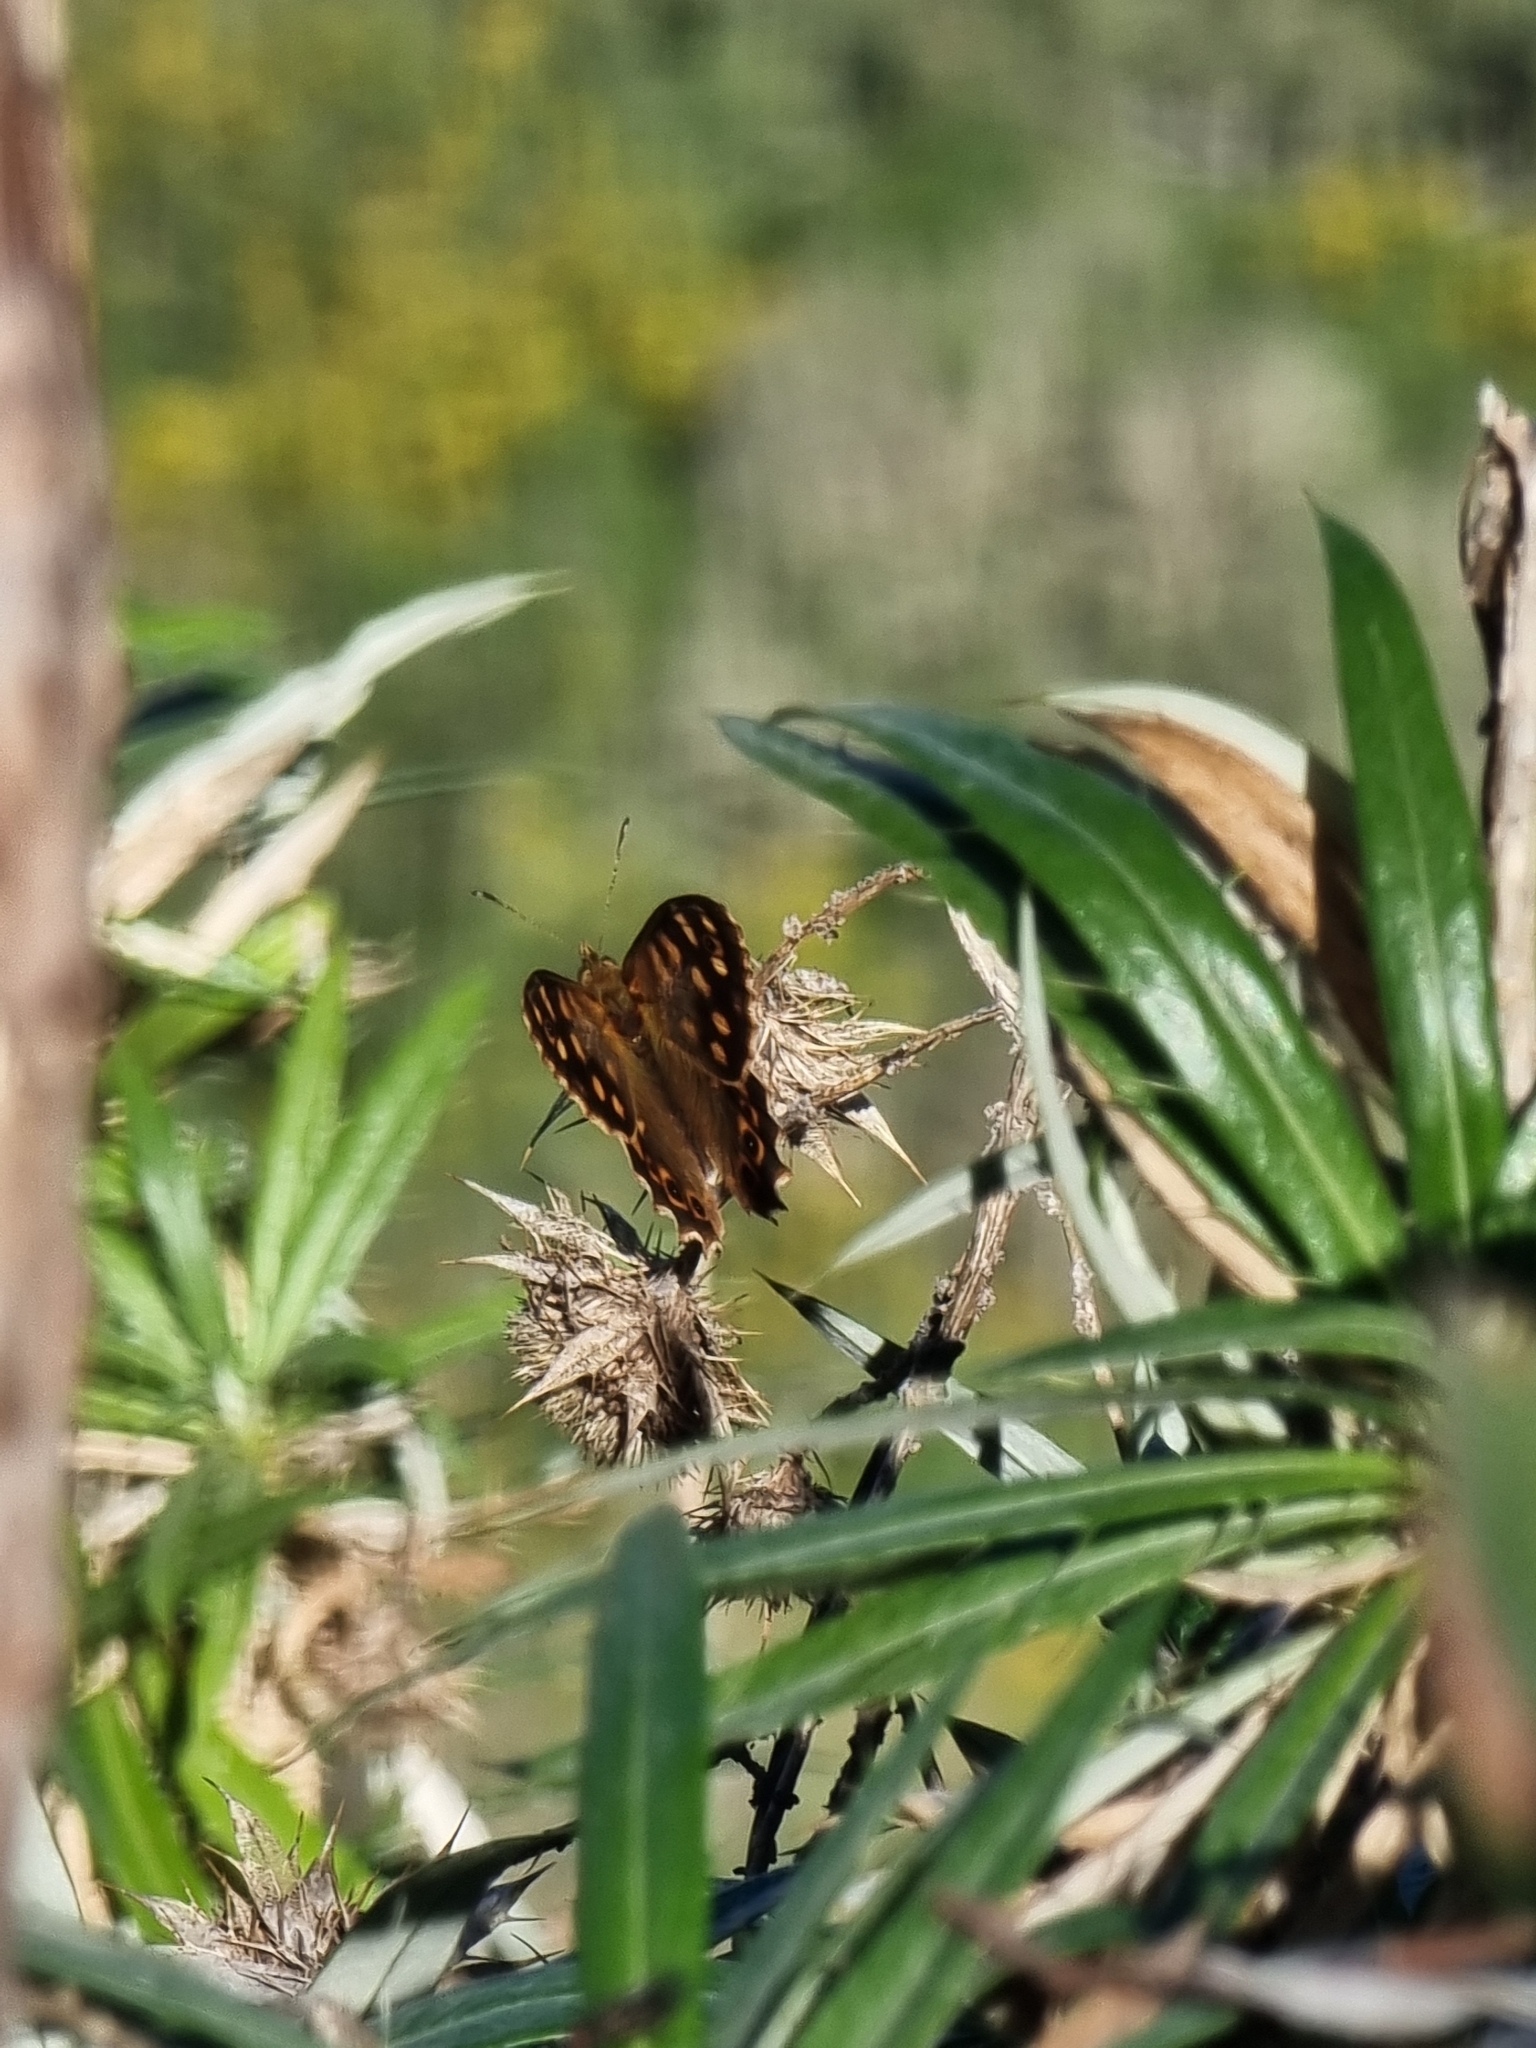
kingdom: Animalia
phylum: Arthropoda
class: Insecta
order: Lepidoptera
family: Nymphalidae
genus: Pararge
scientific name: Pararge aegeria
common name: Speckled wood
